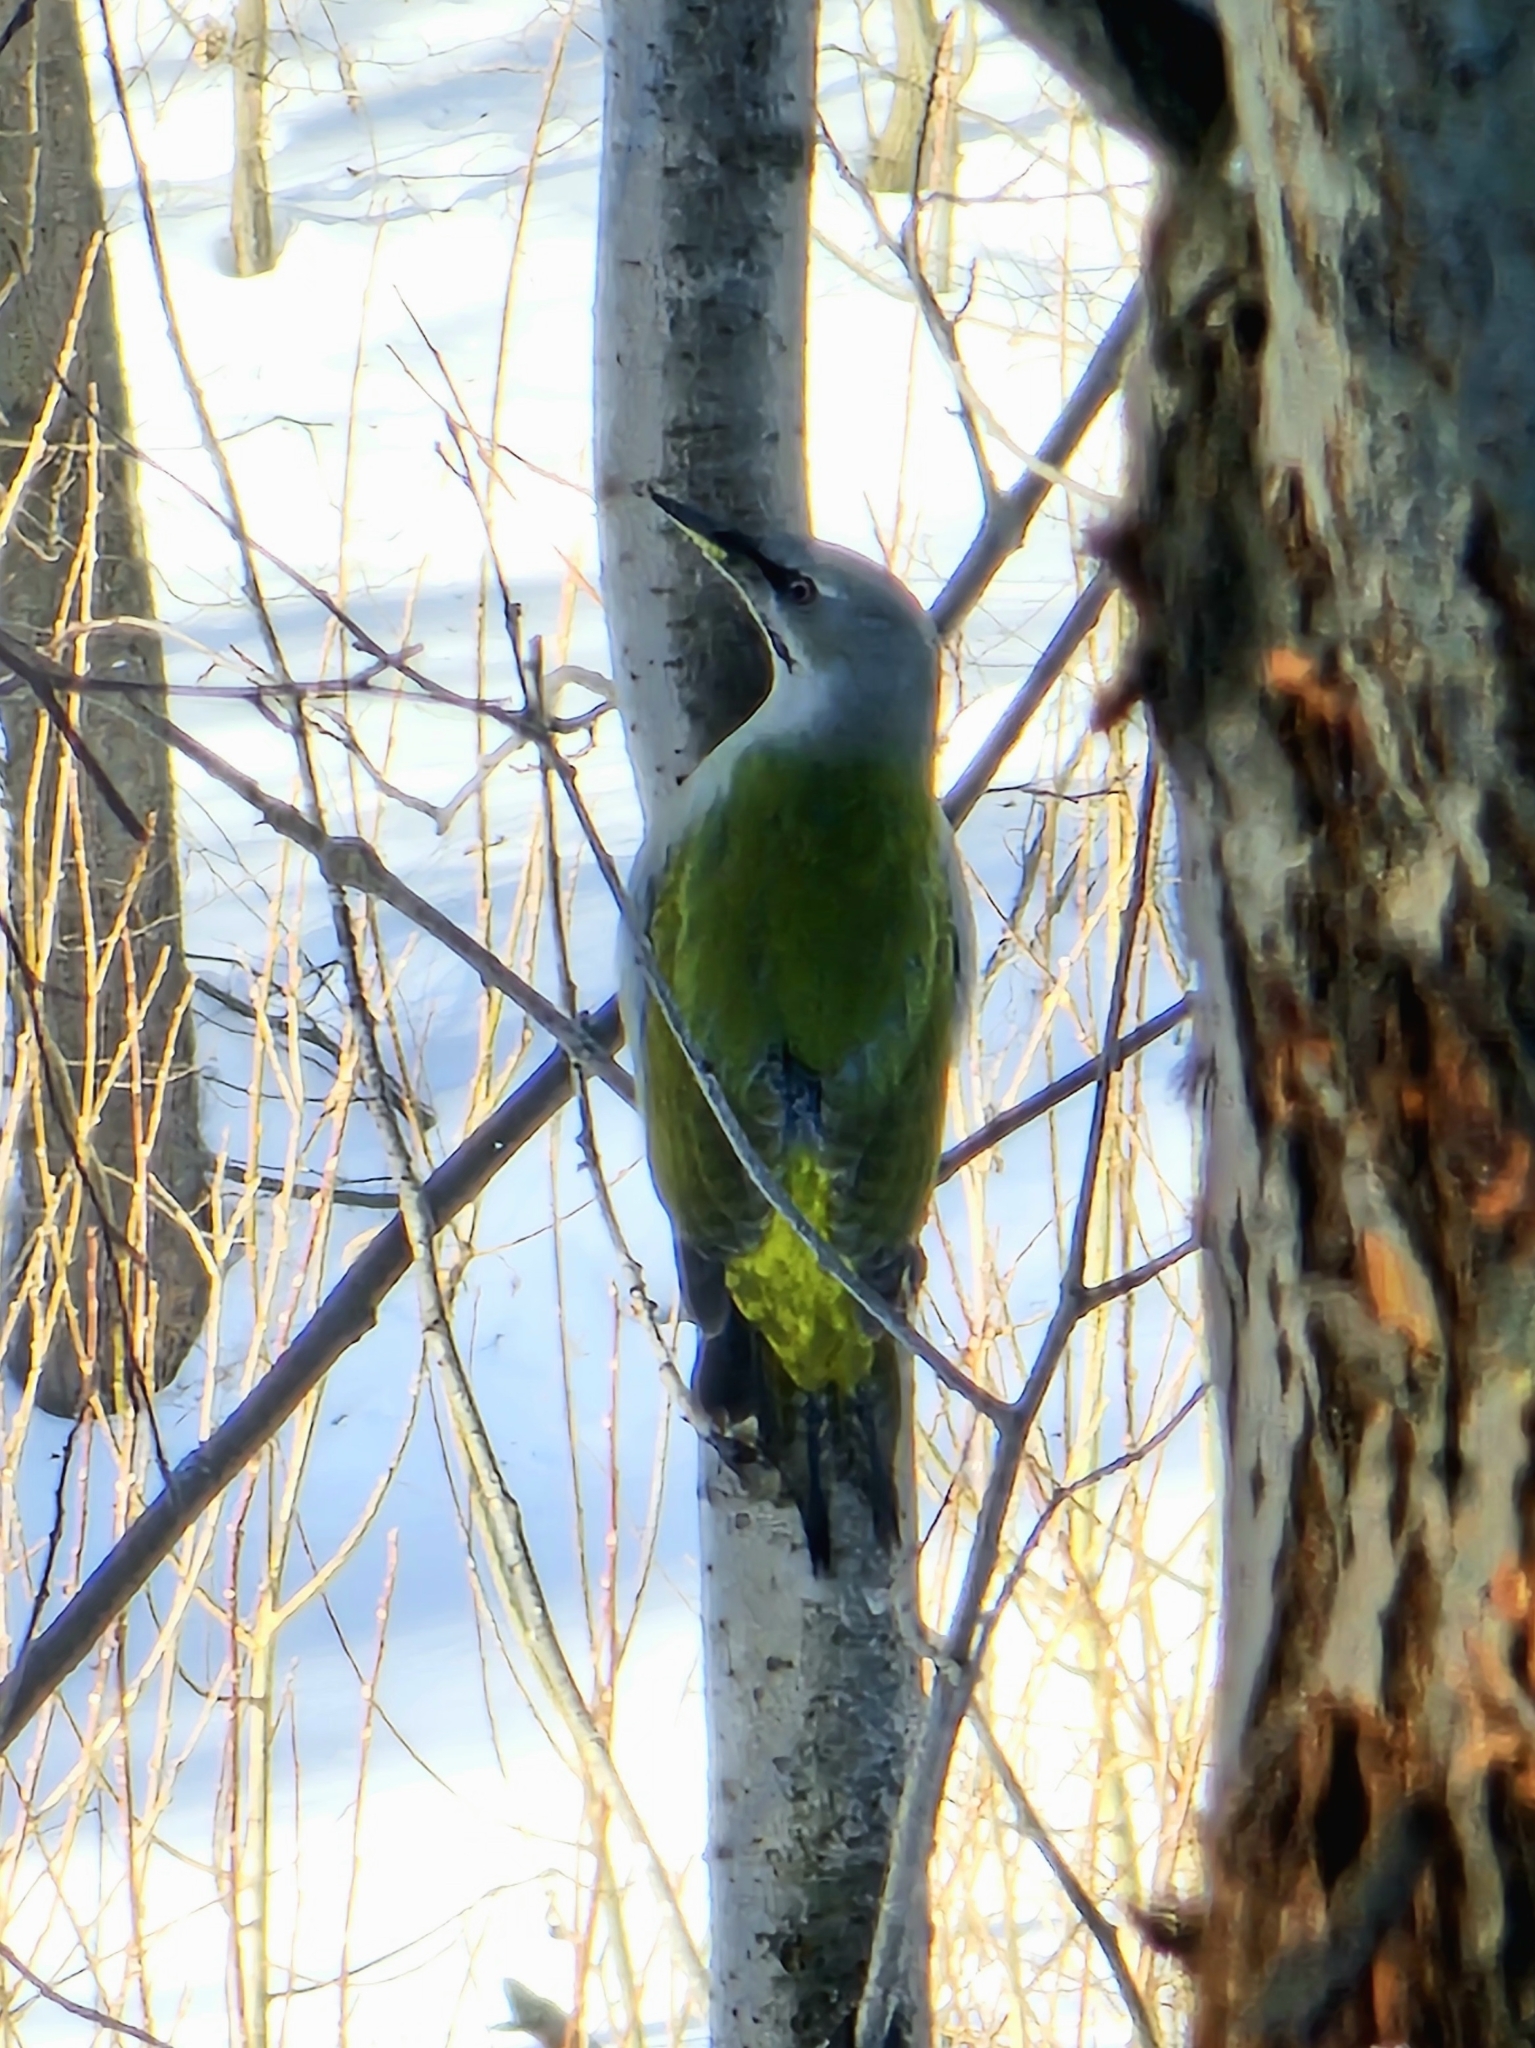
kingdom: Animalia
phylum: Chordata
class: Aves
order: Piciformes
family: Picidae
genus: Picus
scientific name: Picus canus
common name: Grey-headed woodpecker
